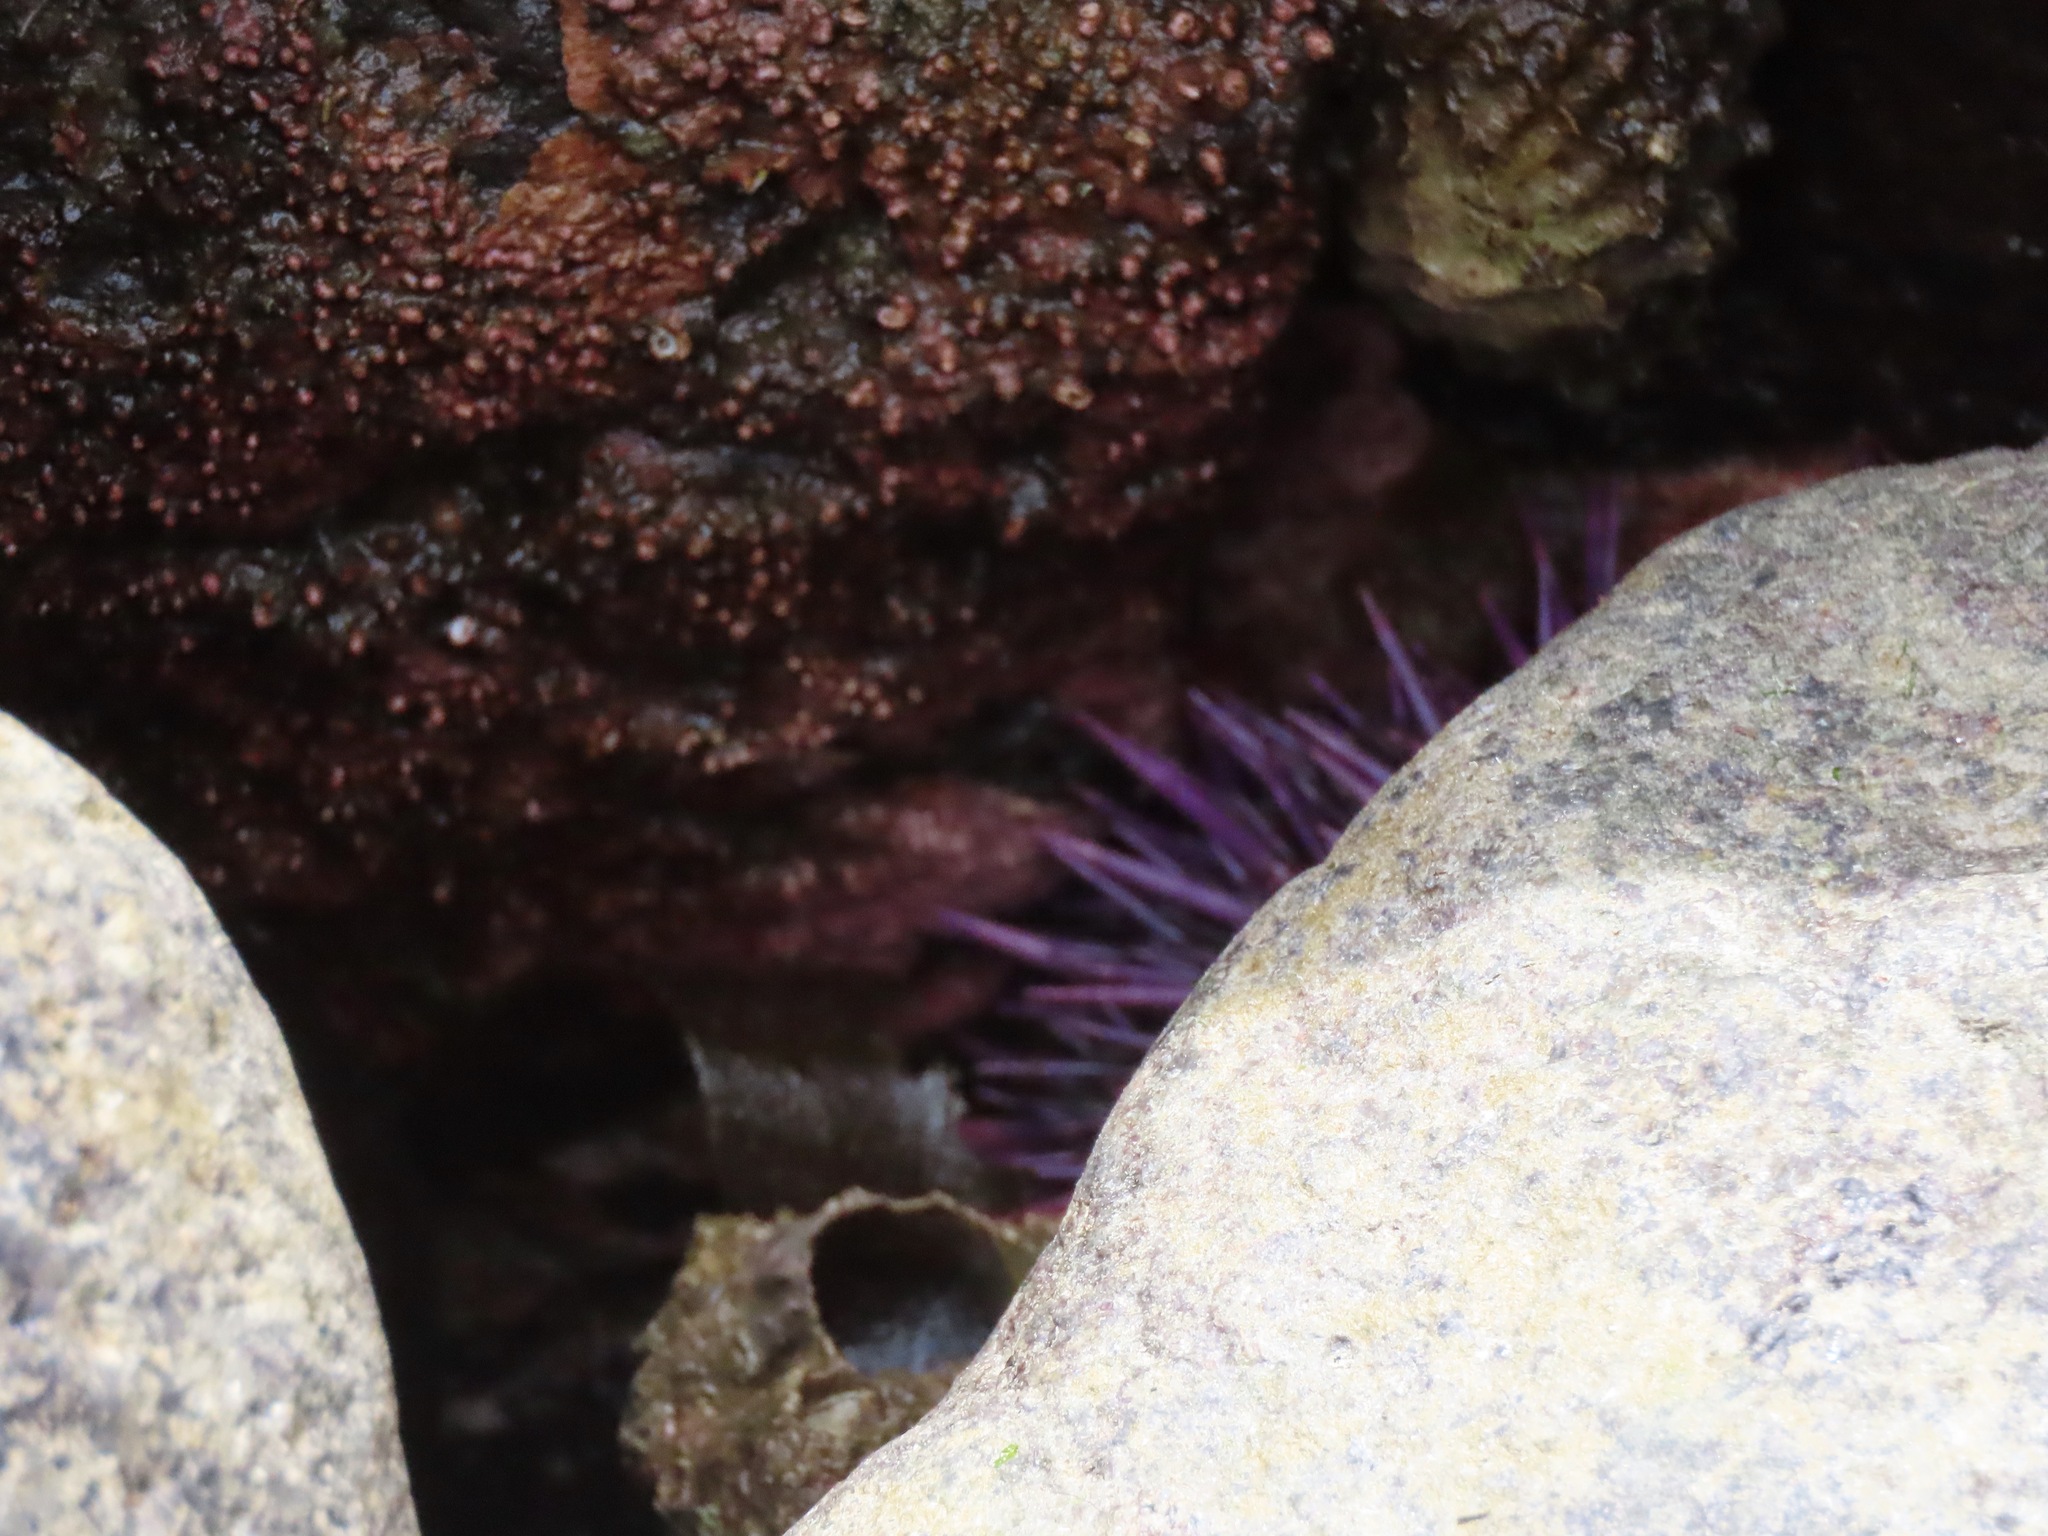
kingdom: Animalia
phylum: Echinodermata
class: Echinoidea
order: Camarodonta
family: Strongylocentrotidae
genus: Strongylocentrotus
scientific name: Strongylocentrotus purpuratus
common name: Purple sea urchin
